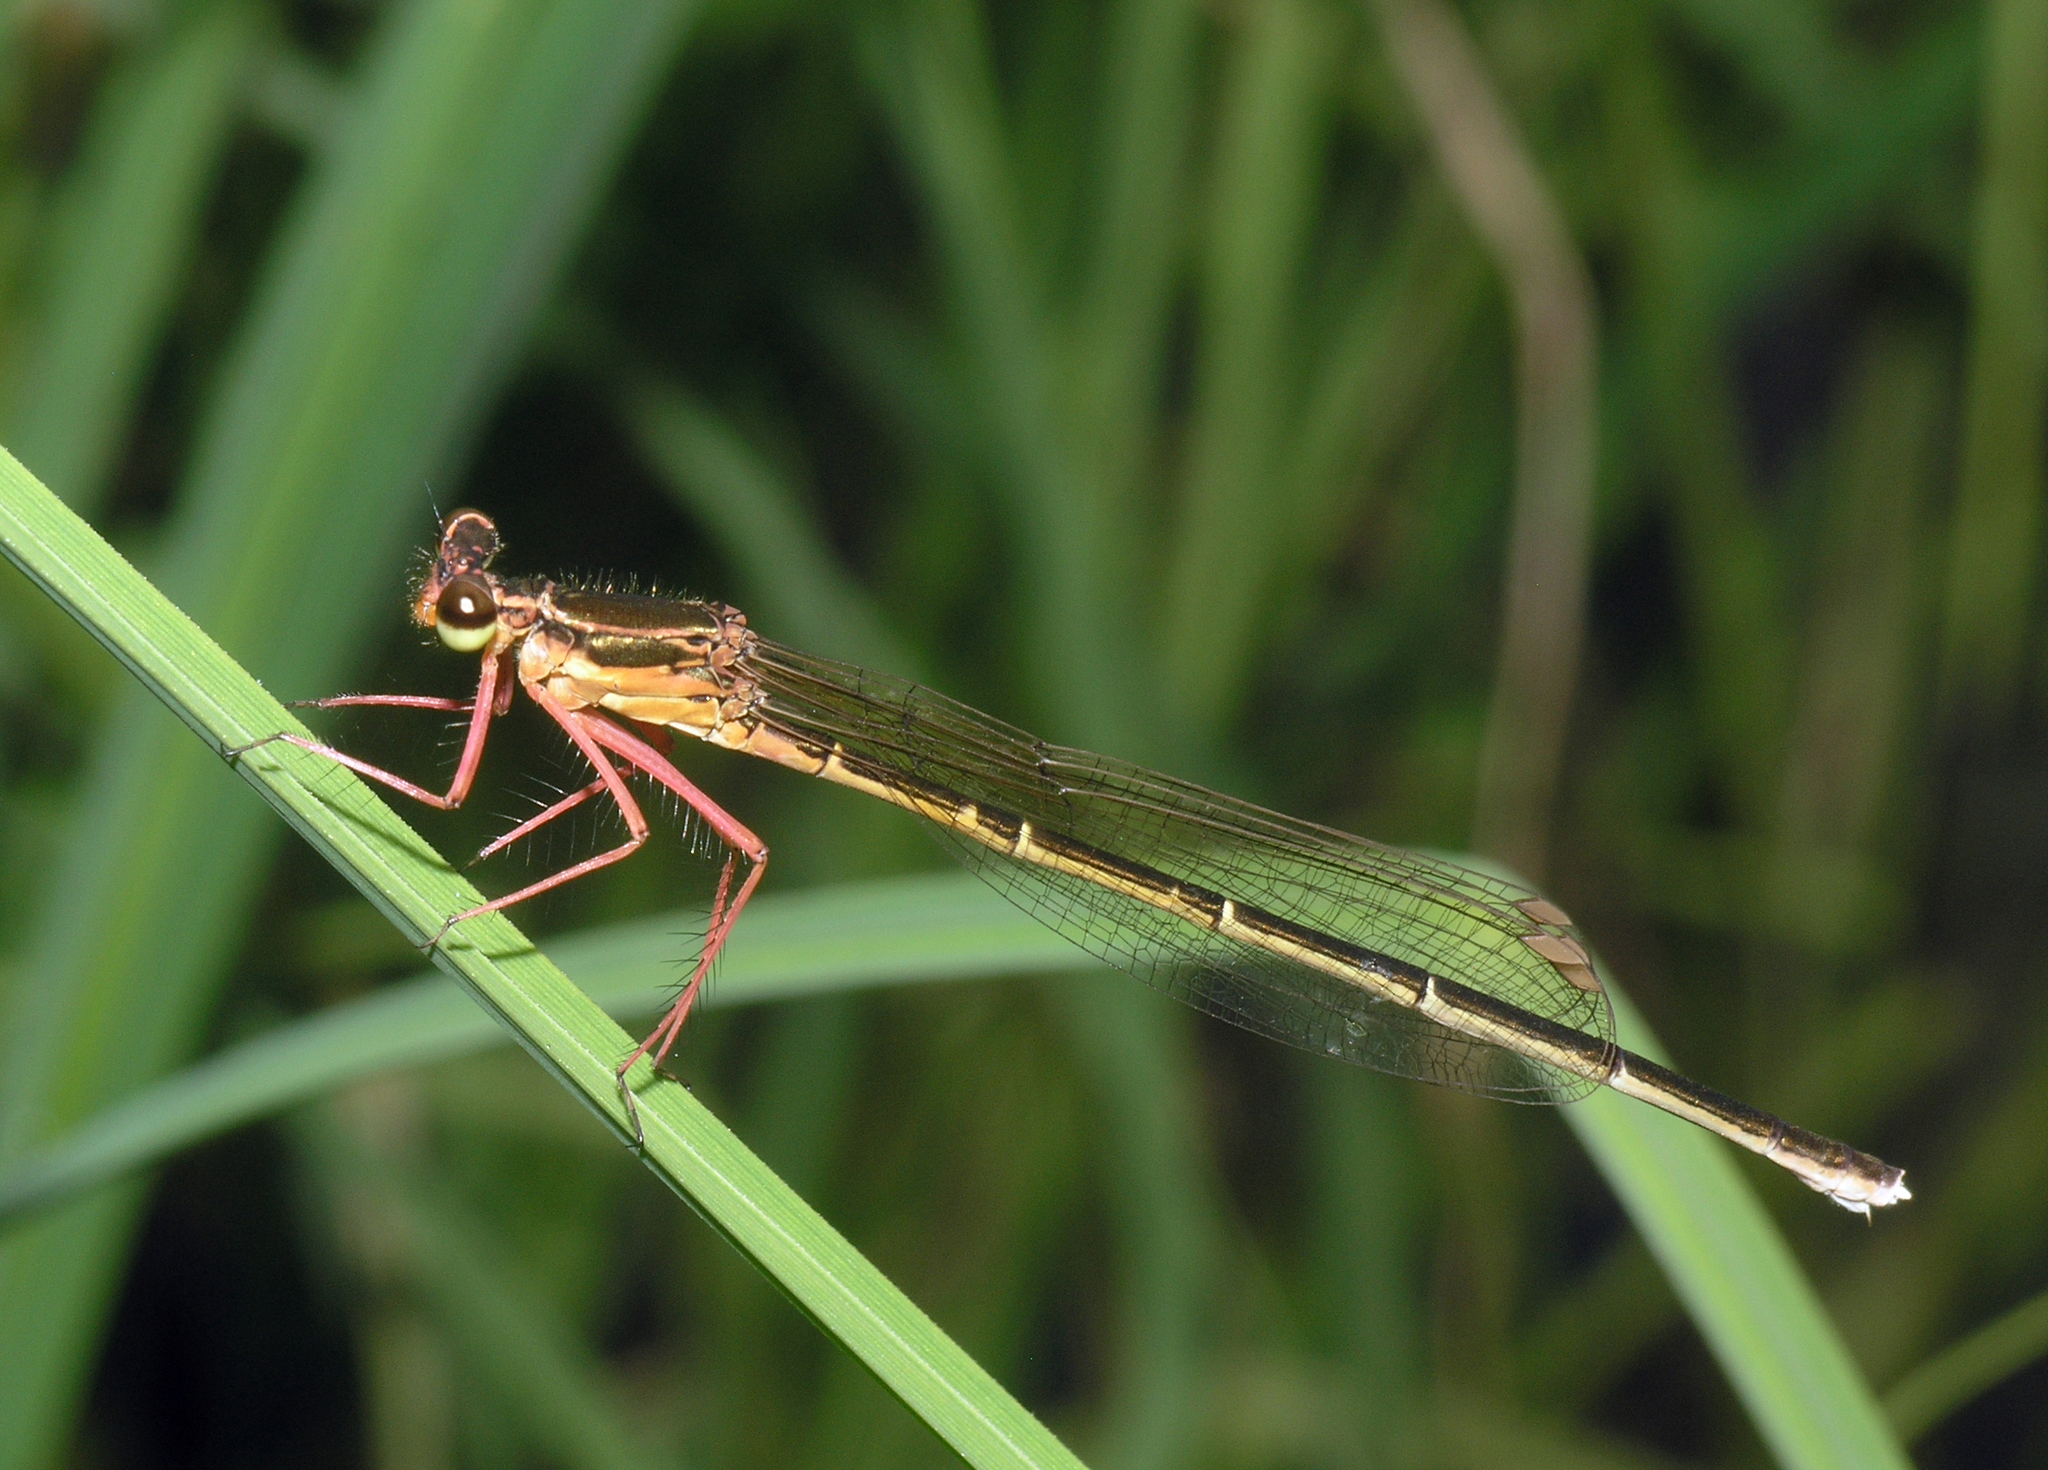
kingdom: Animalia
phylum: Arthropoda
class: Insecta
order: Odonata
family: Platycnemididae
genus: Pseudocopera
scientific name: Pseudocopera rubripes
